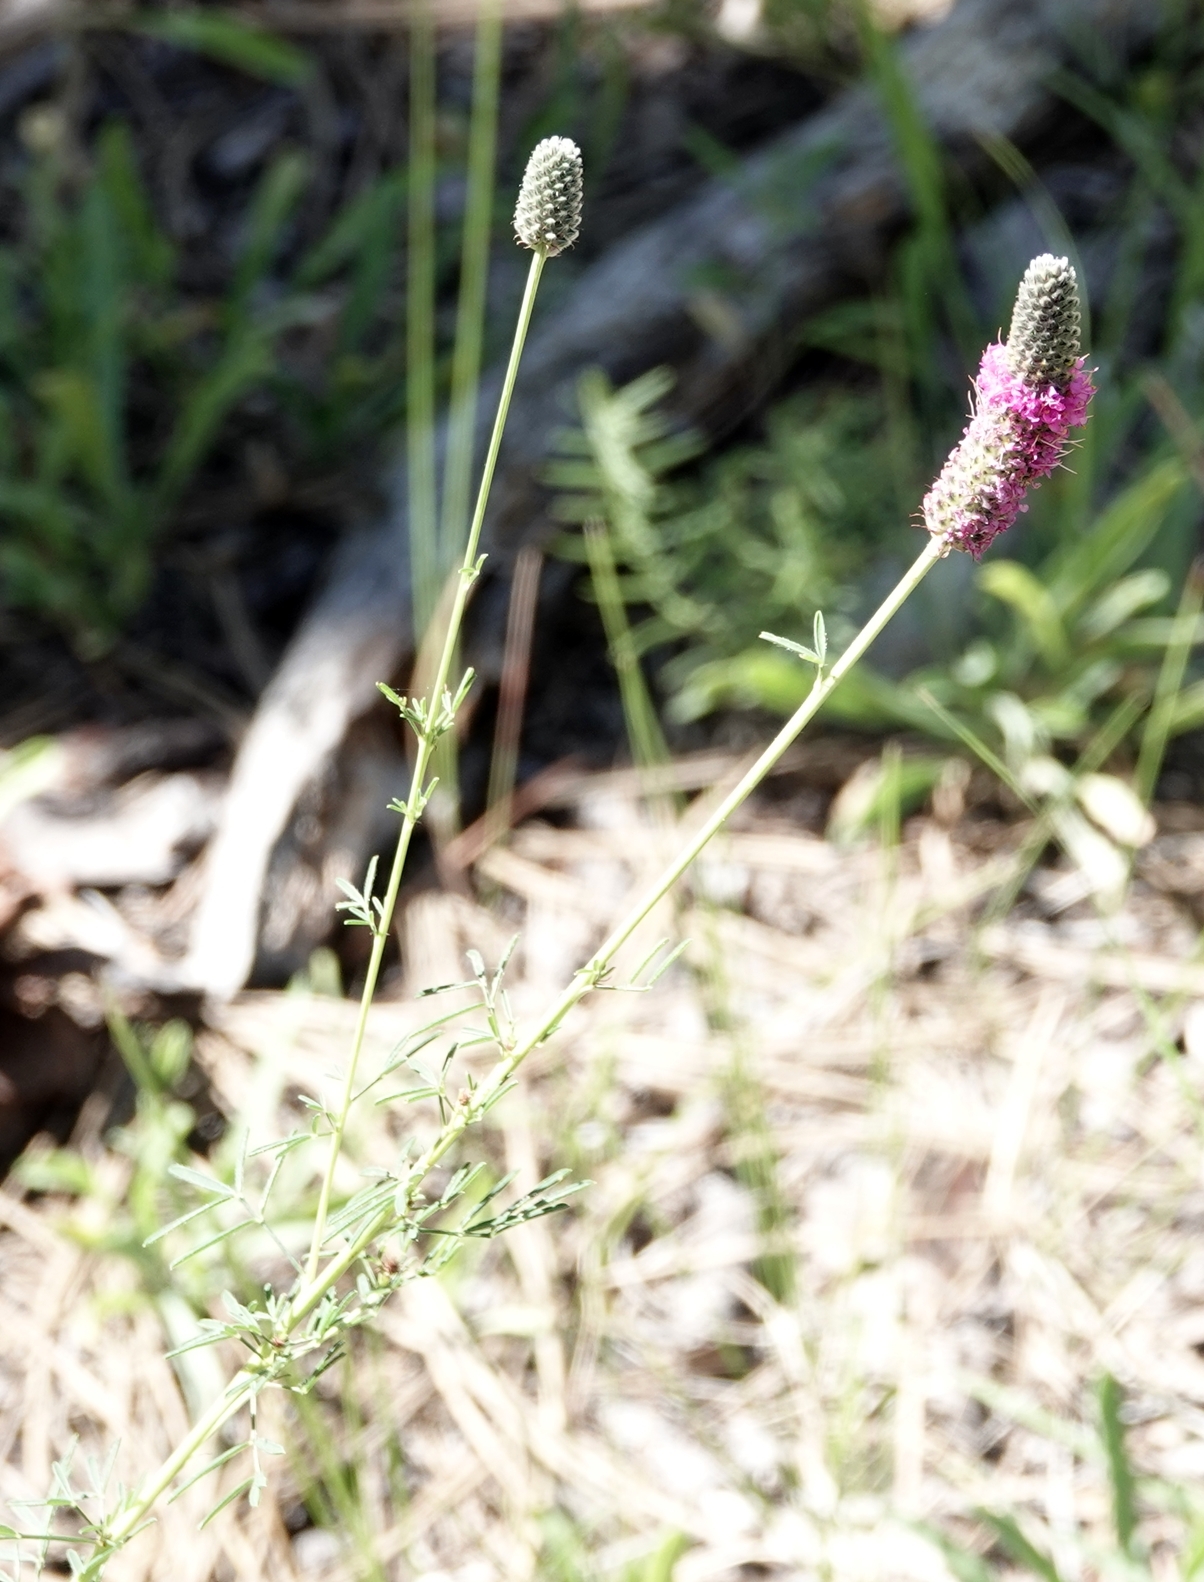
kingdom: Plantae
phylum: Tracheophyta
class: Magnoliopsida
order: Fabales
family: Fabaceae
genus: Dalea
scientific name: Dalea purpurea
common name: Purple prairie-clover
